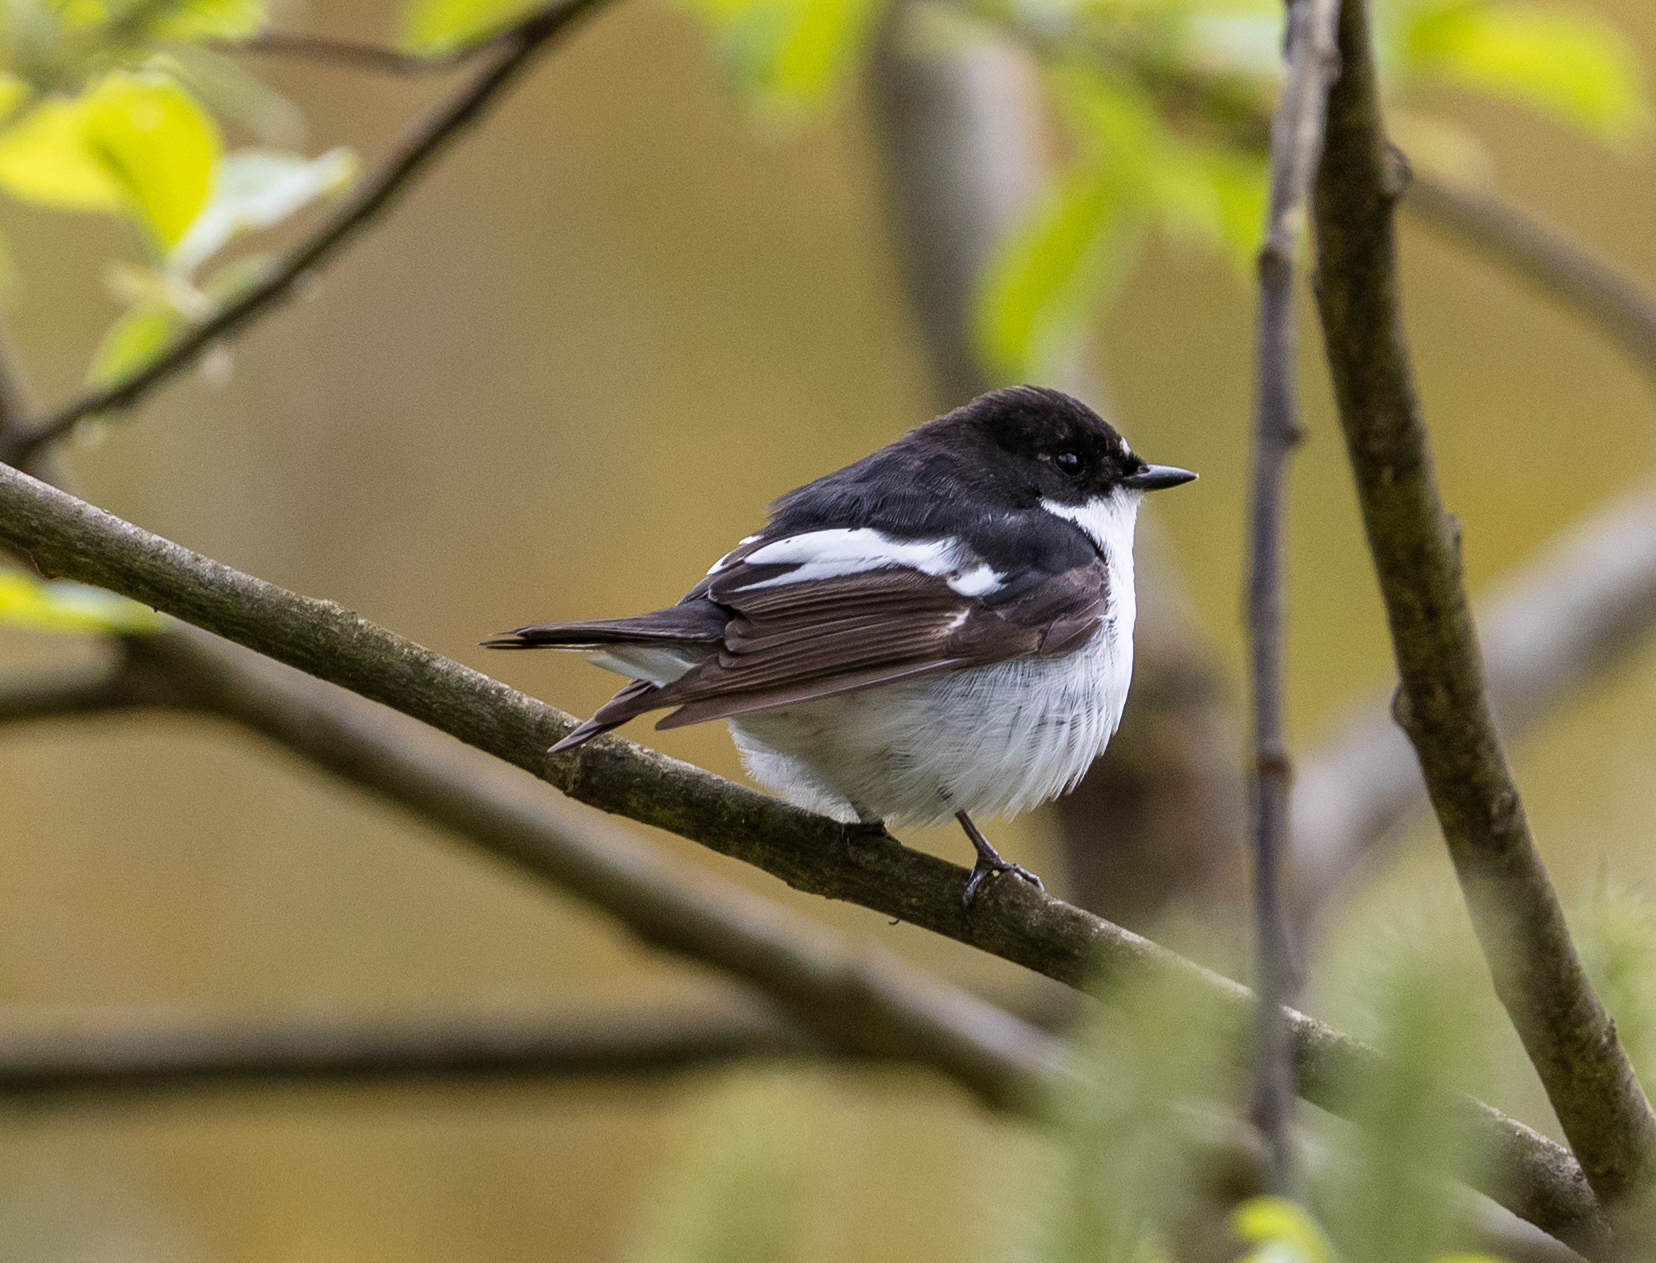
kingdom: Animalia
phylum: Chordata
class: Aves
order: Passeriformes
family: Muscicapidae
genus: Ficedula
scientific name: Ficedula hypoleuca
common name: European pied flycatcher
